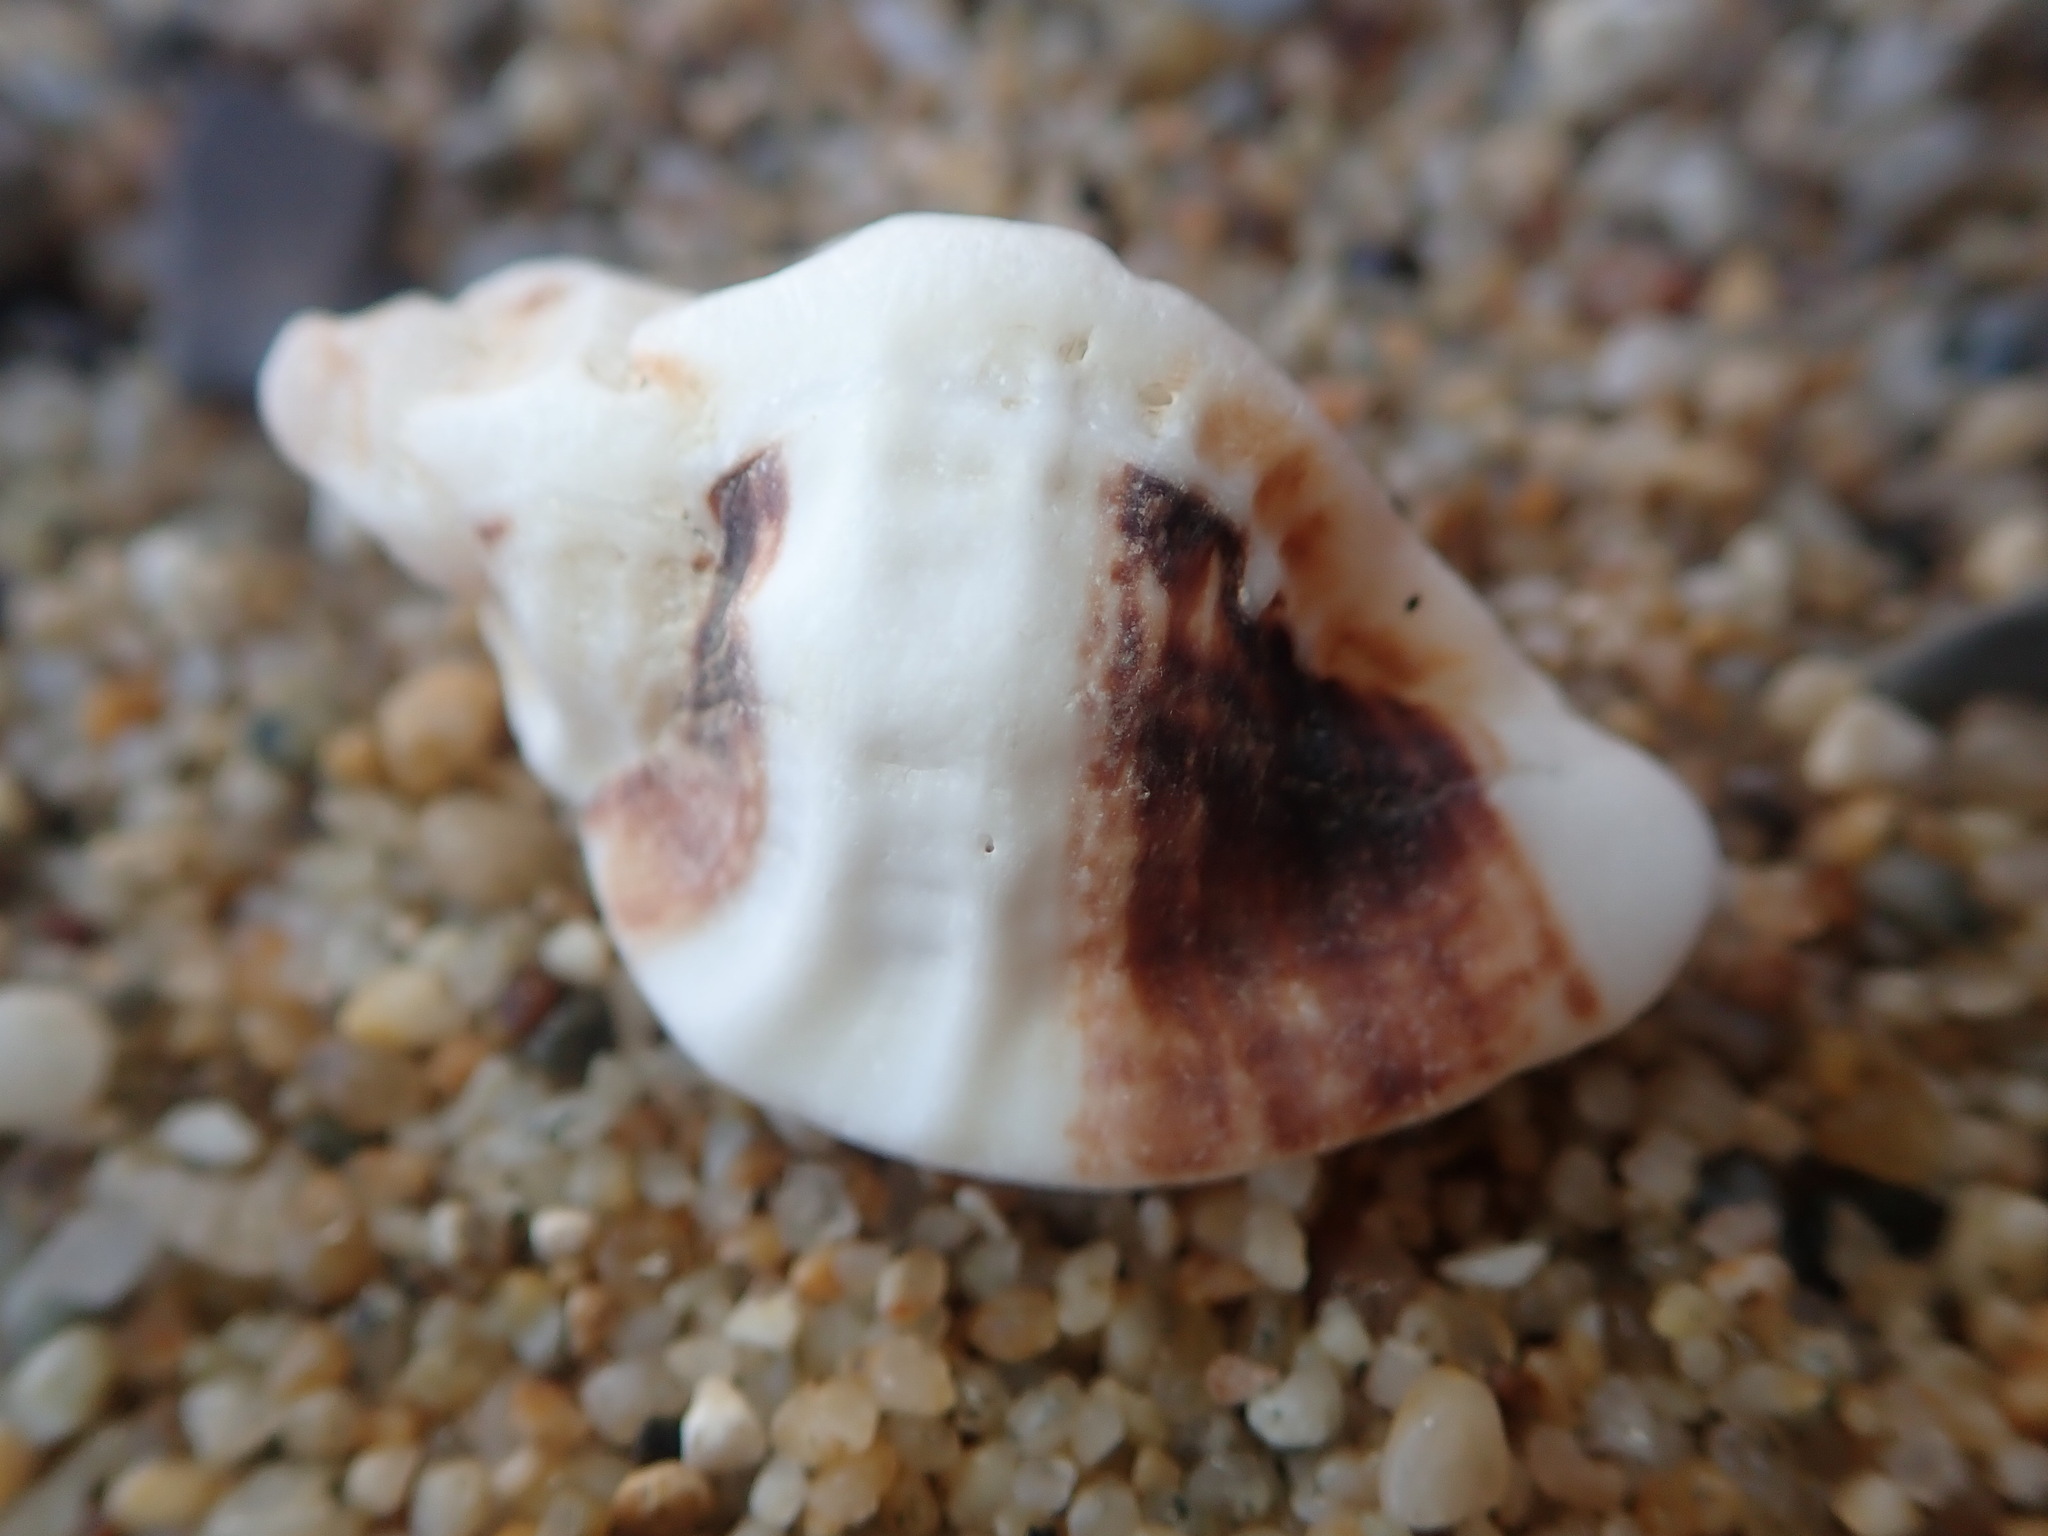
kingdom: Animalia
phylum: Mollusca
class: Gastropoda
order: Neogastropoda
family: Muricidae
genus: Ceratostoma
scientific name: Ceratostoma foliatum
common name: Foliate thorn purpura
